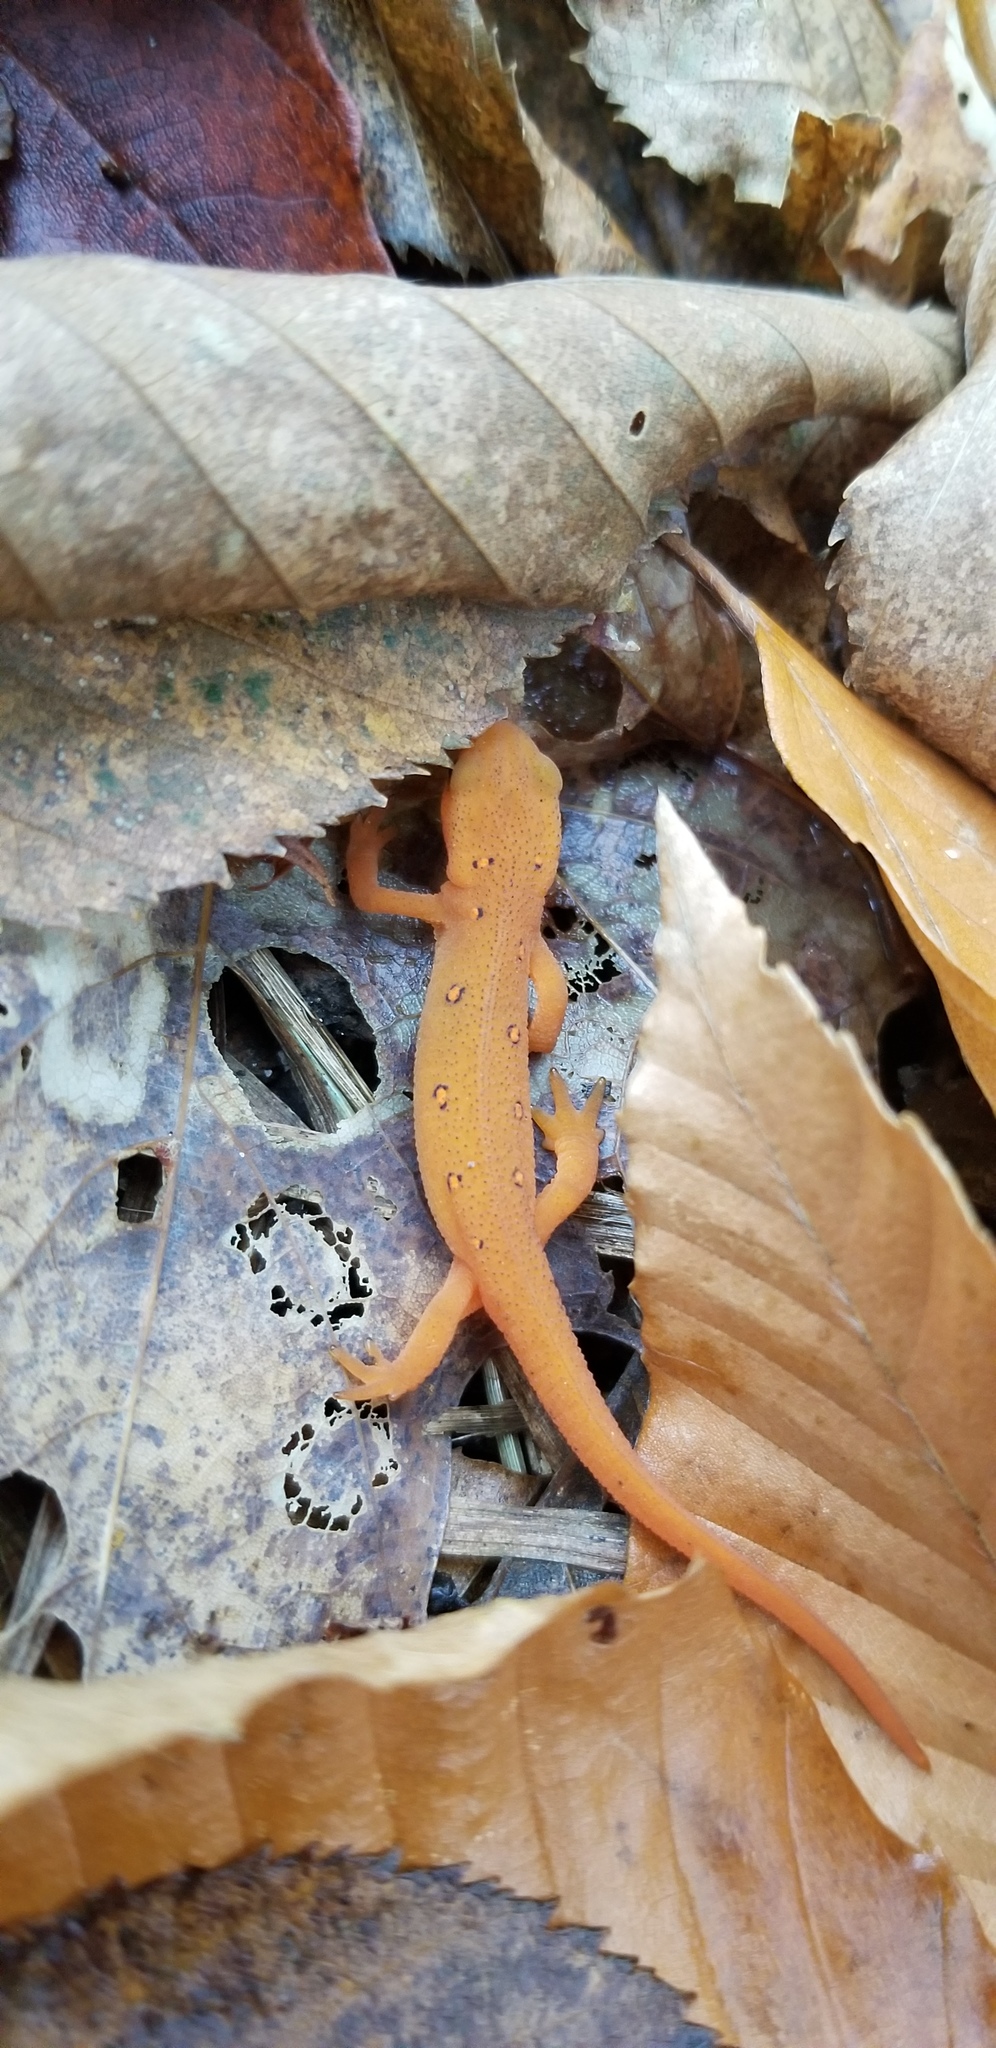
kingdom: Animalia
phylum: Chordata
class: Amphibia
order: Caudata
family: Salamandridae
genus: Notophthalmus
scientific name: Notophthalmus viridescens
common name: Eastern newt
